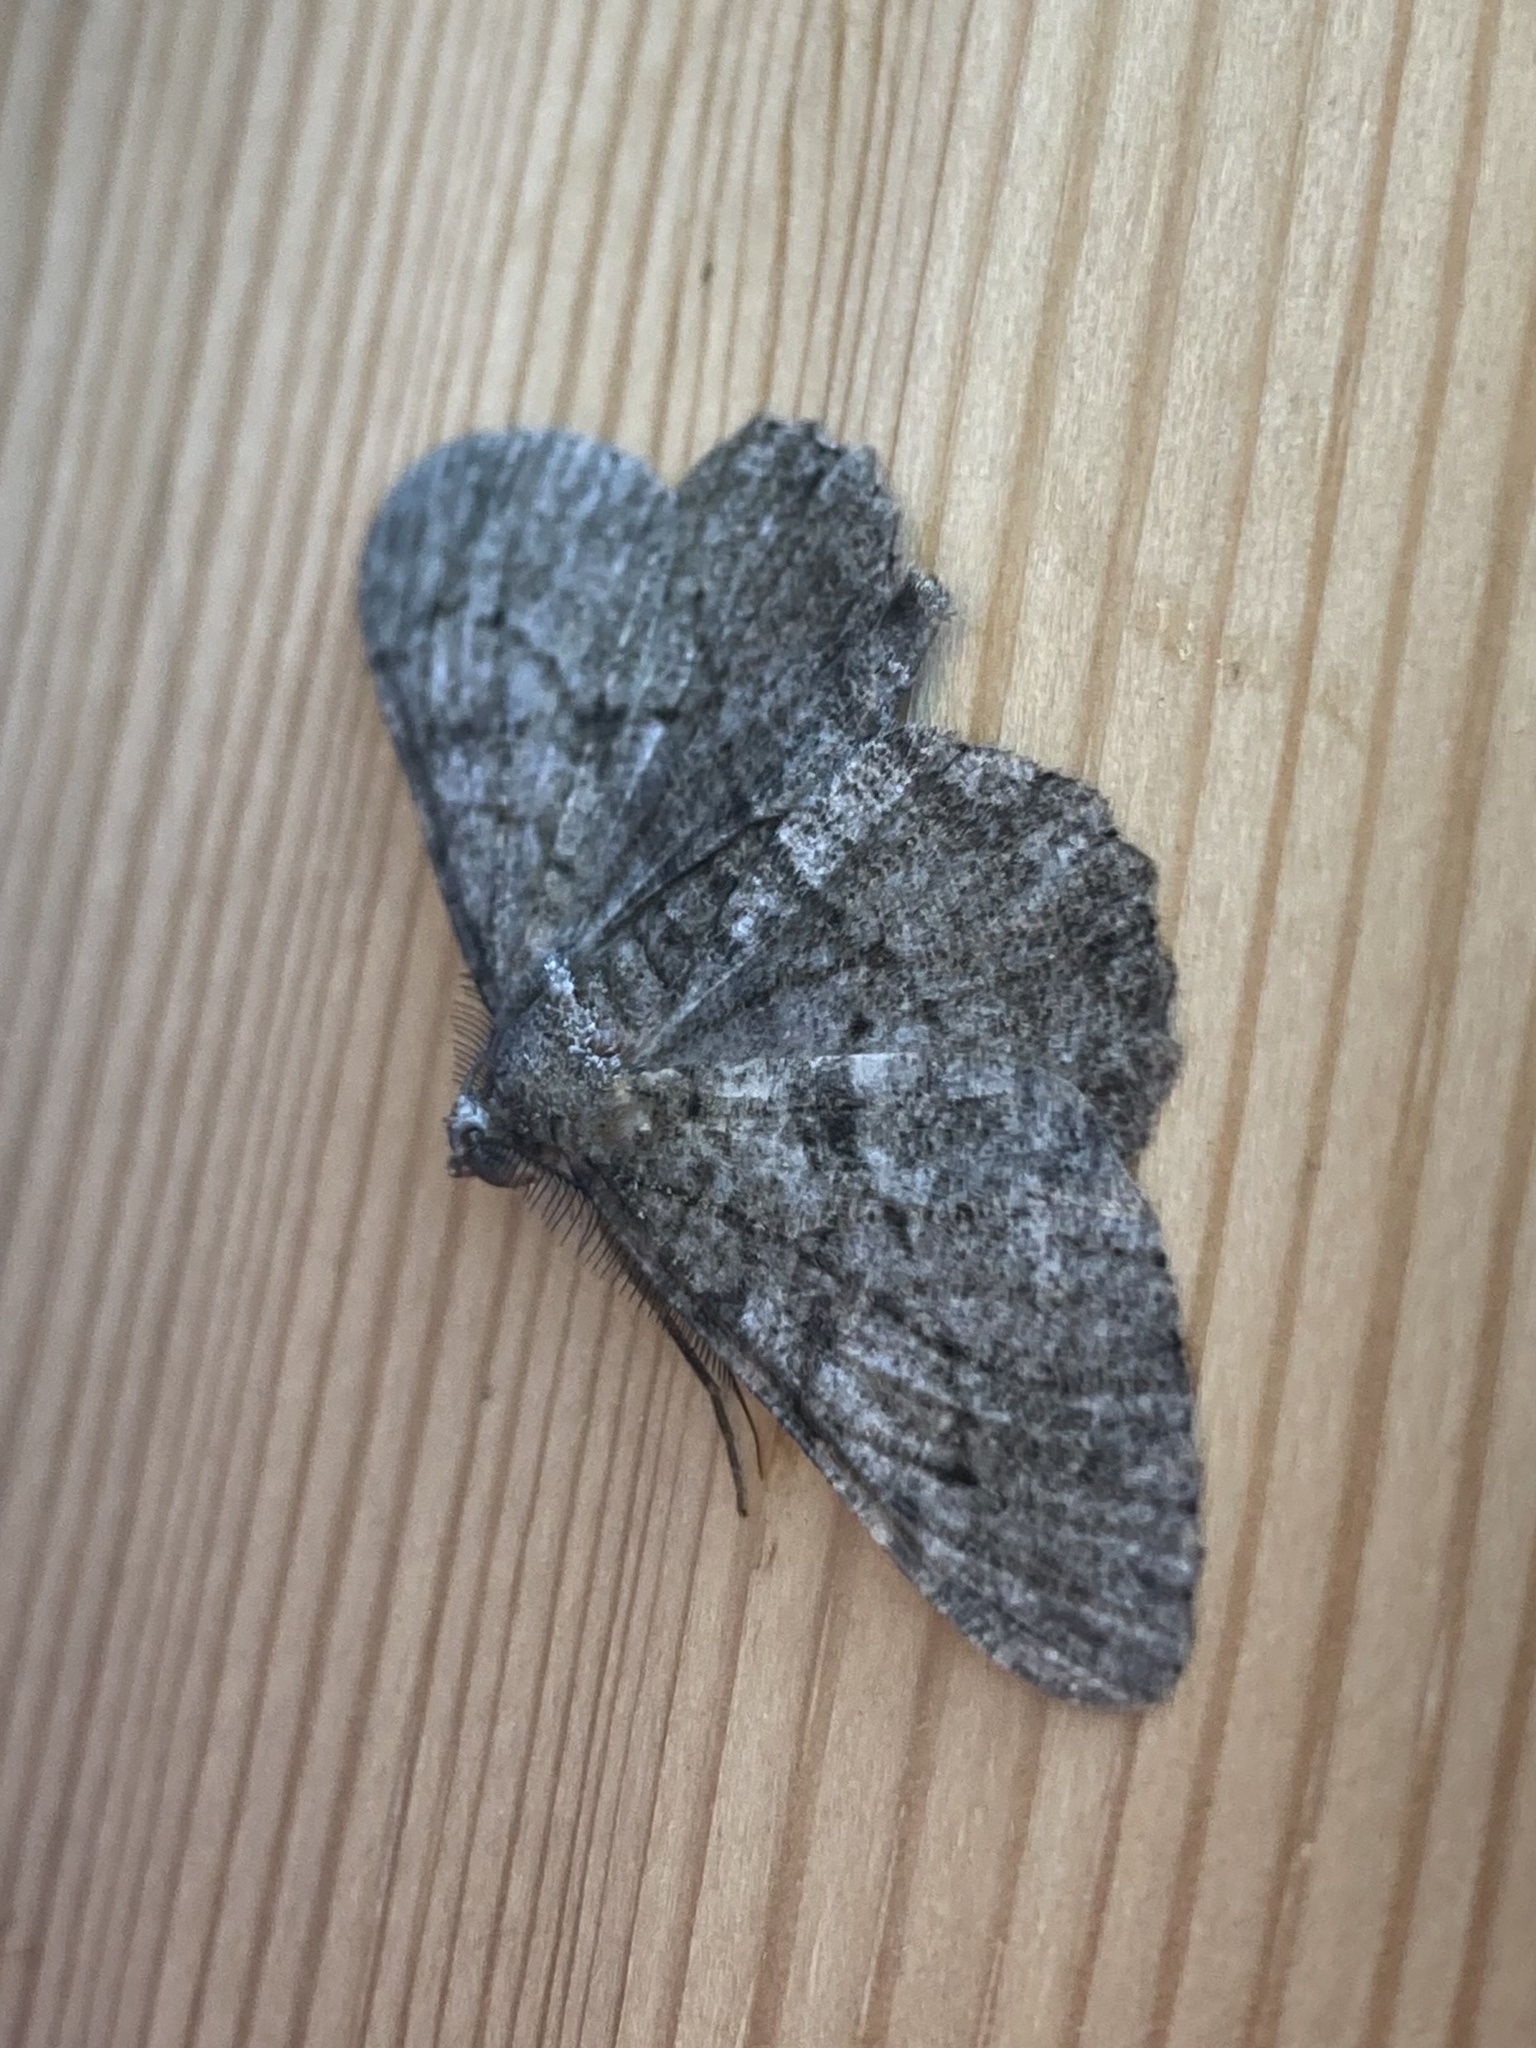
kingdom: Animalia
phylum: Arthropoda
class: Insecta
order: Lepidoptera
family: Geometridae
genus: Peribatodes
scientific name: Peribatodes rhomboidaria
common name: Willow beauty
